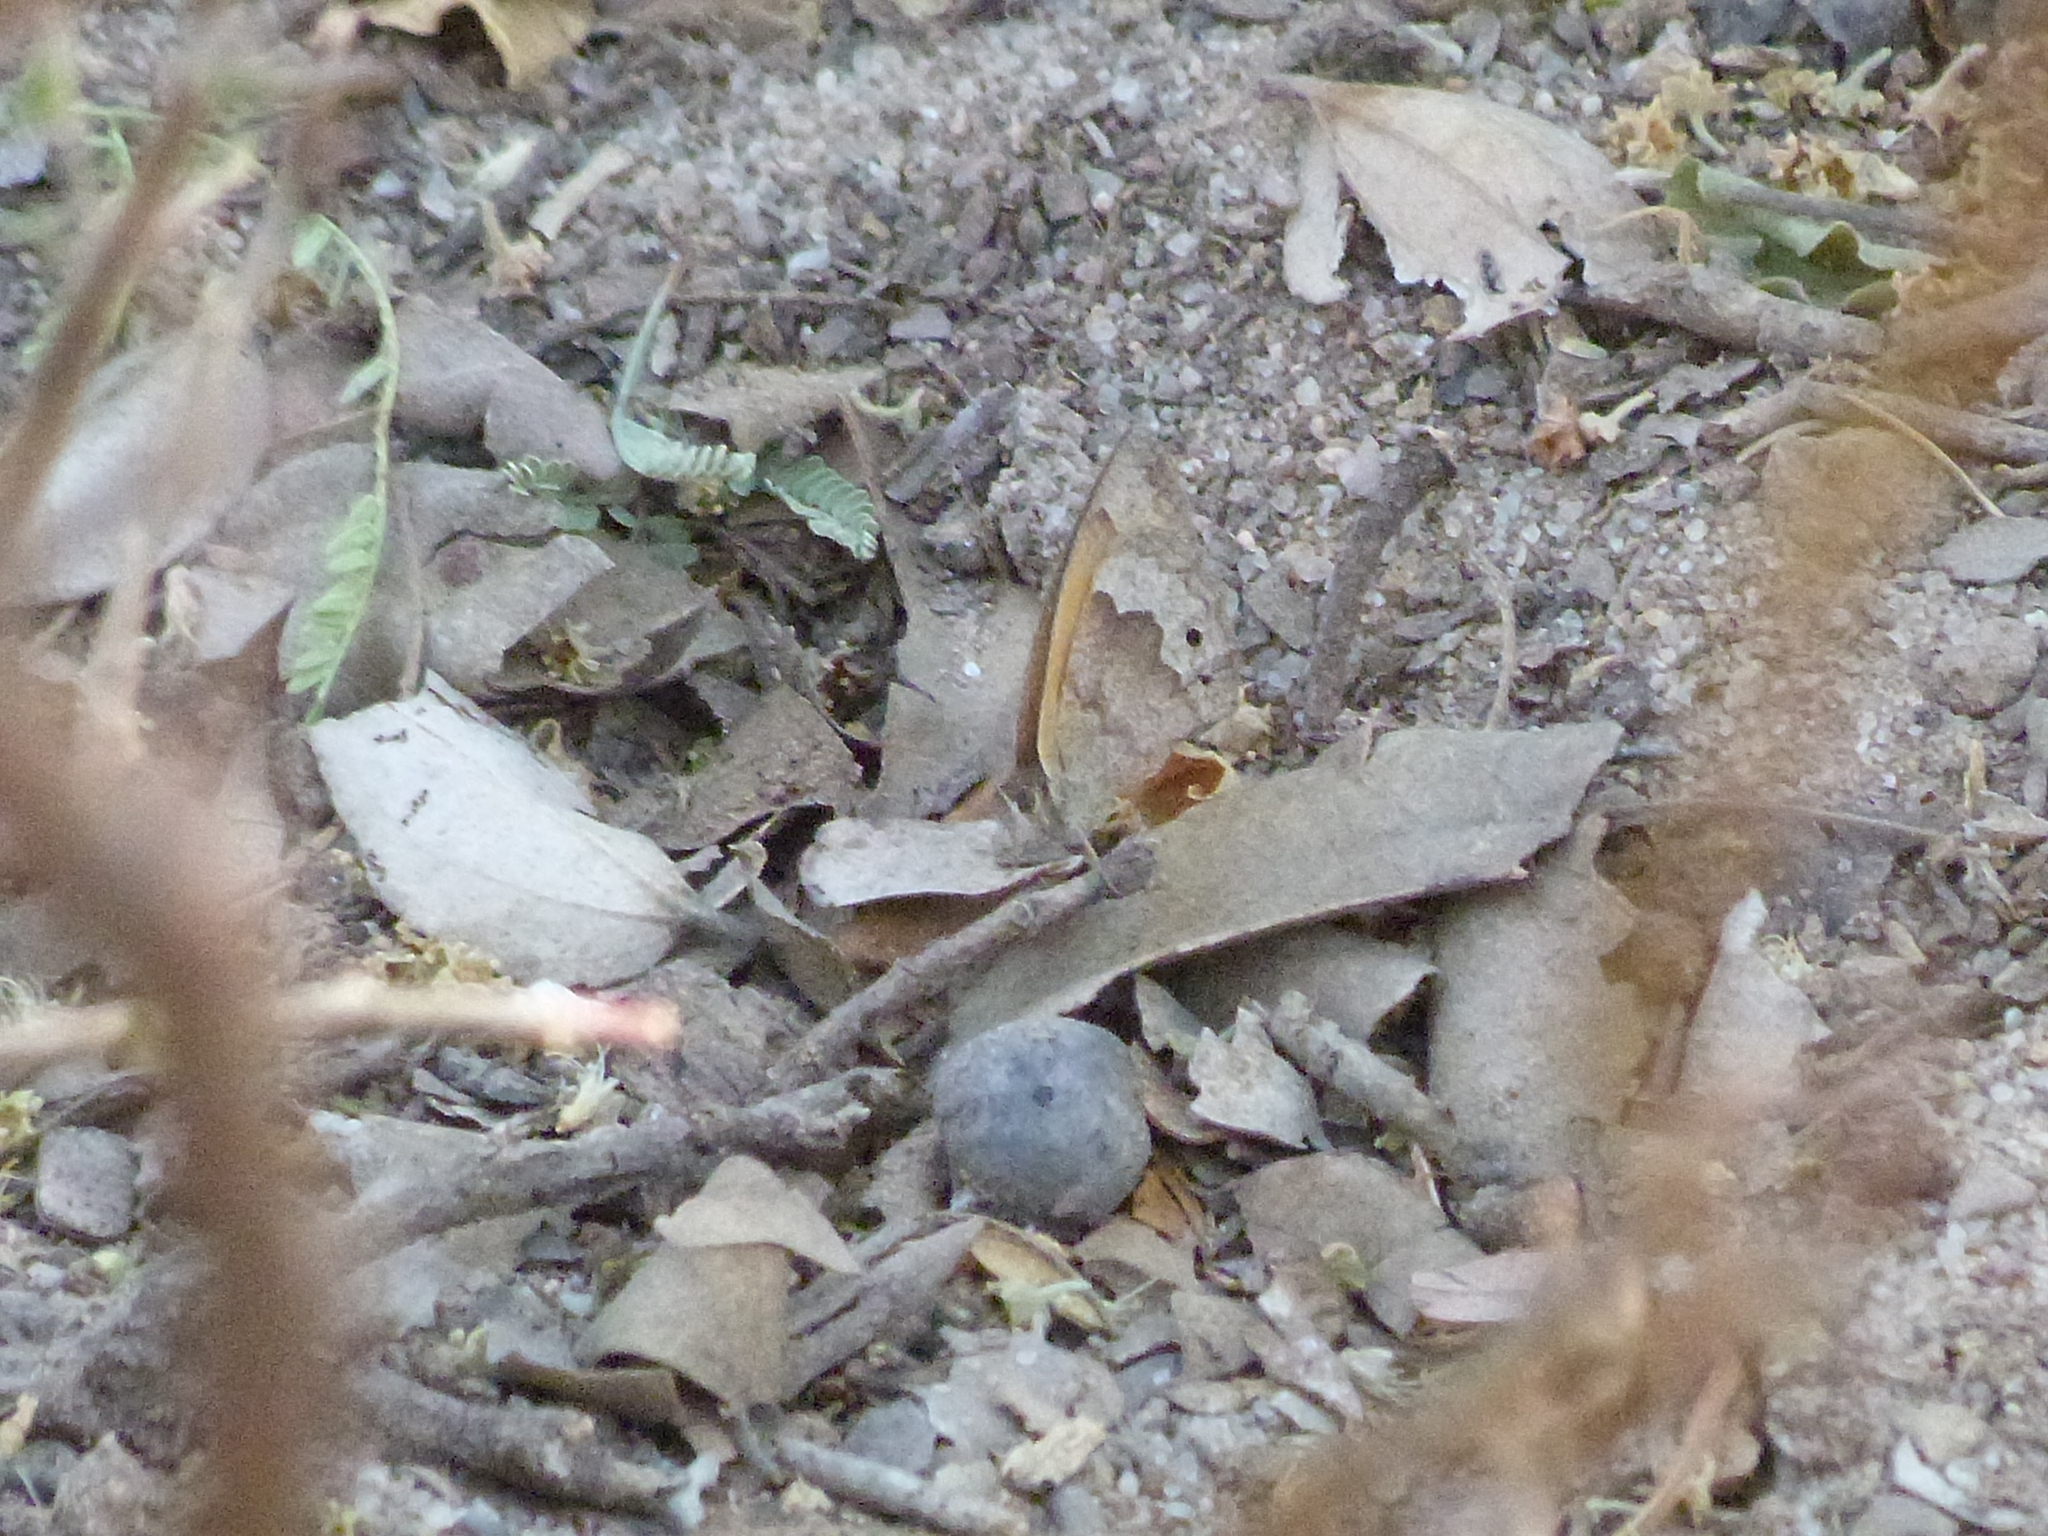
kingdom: Animalia
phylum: Arthropoda
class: Insecta
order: Lepidoptera
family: Nymphalidae
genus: Pharneuptychia
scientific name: Pharneuptychia phares
